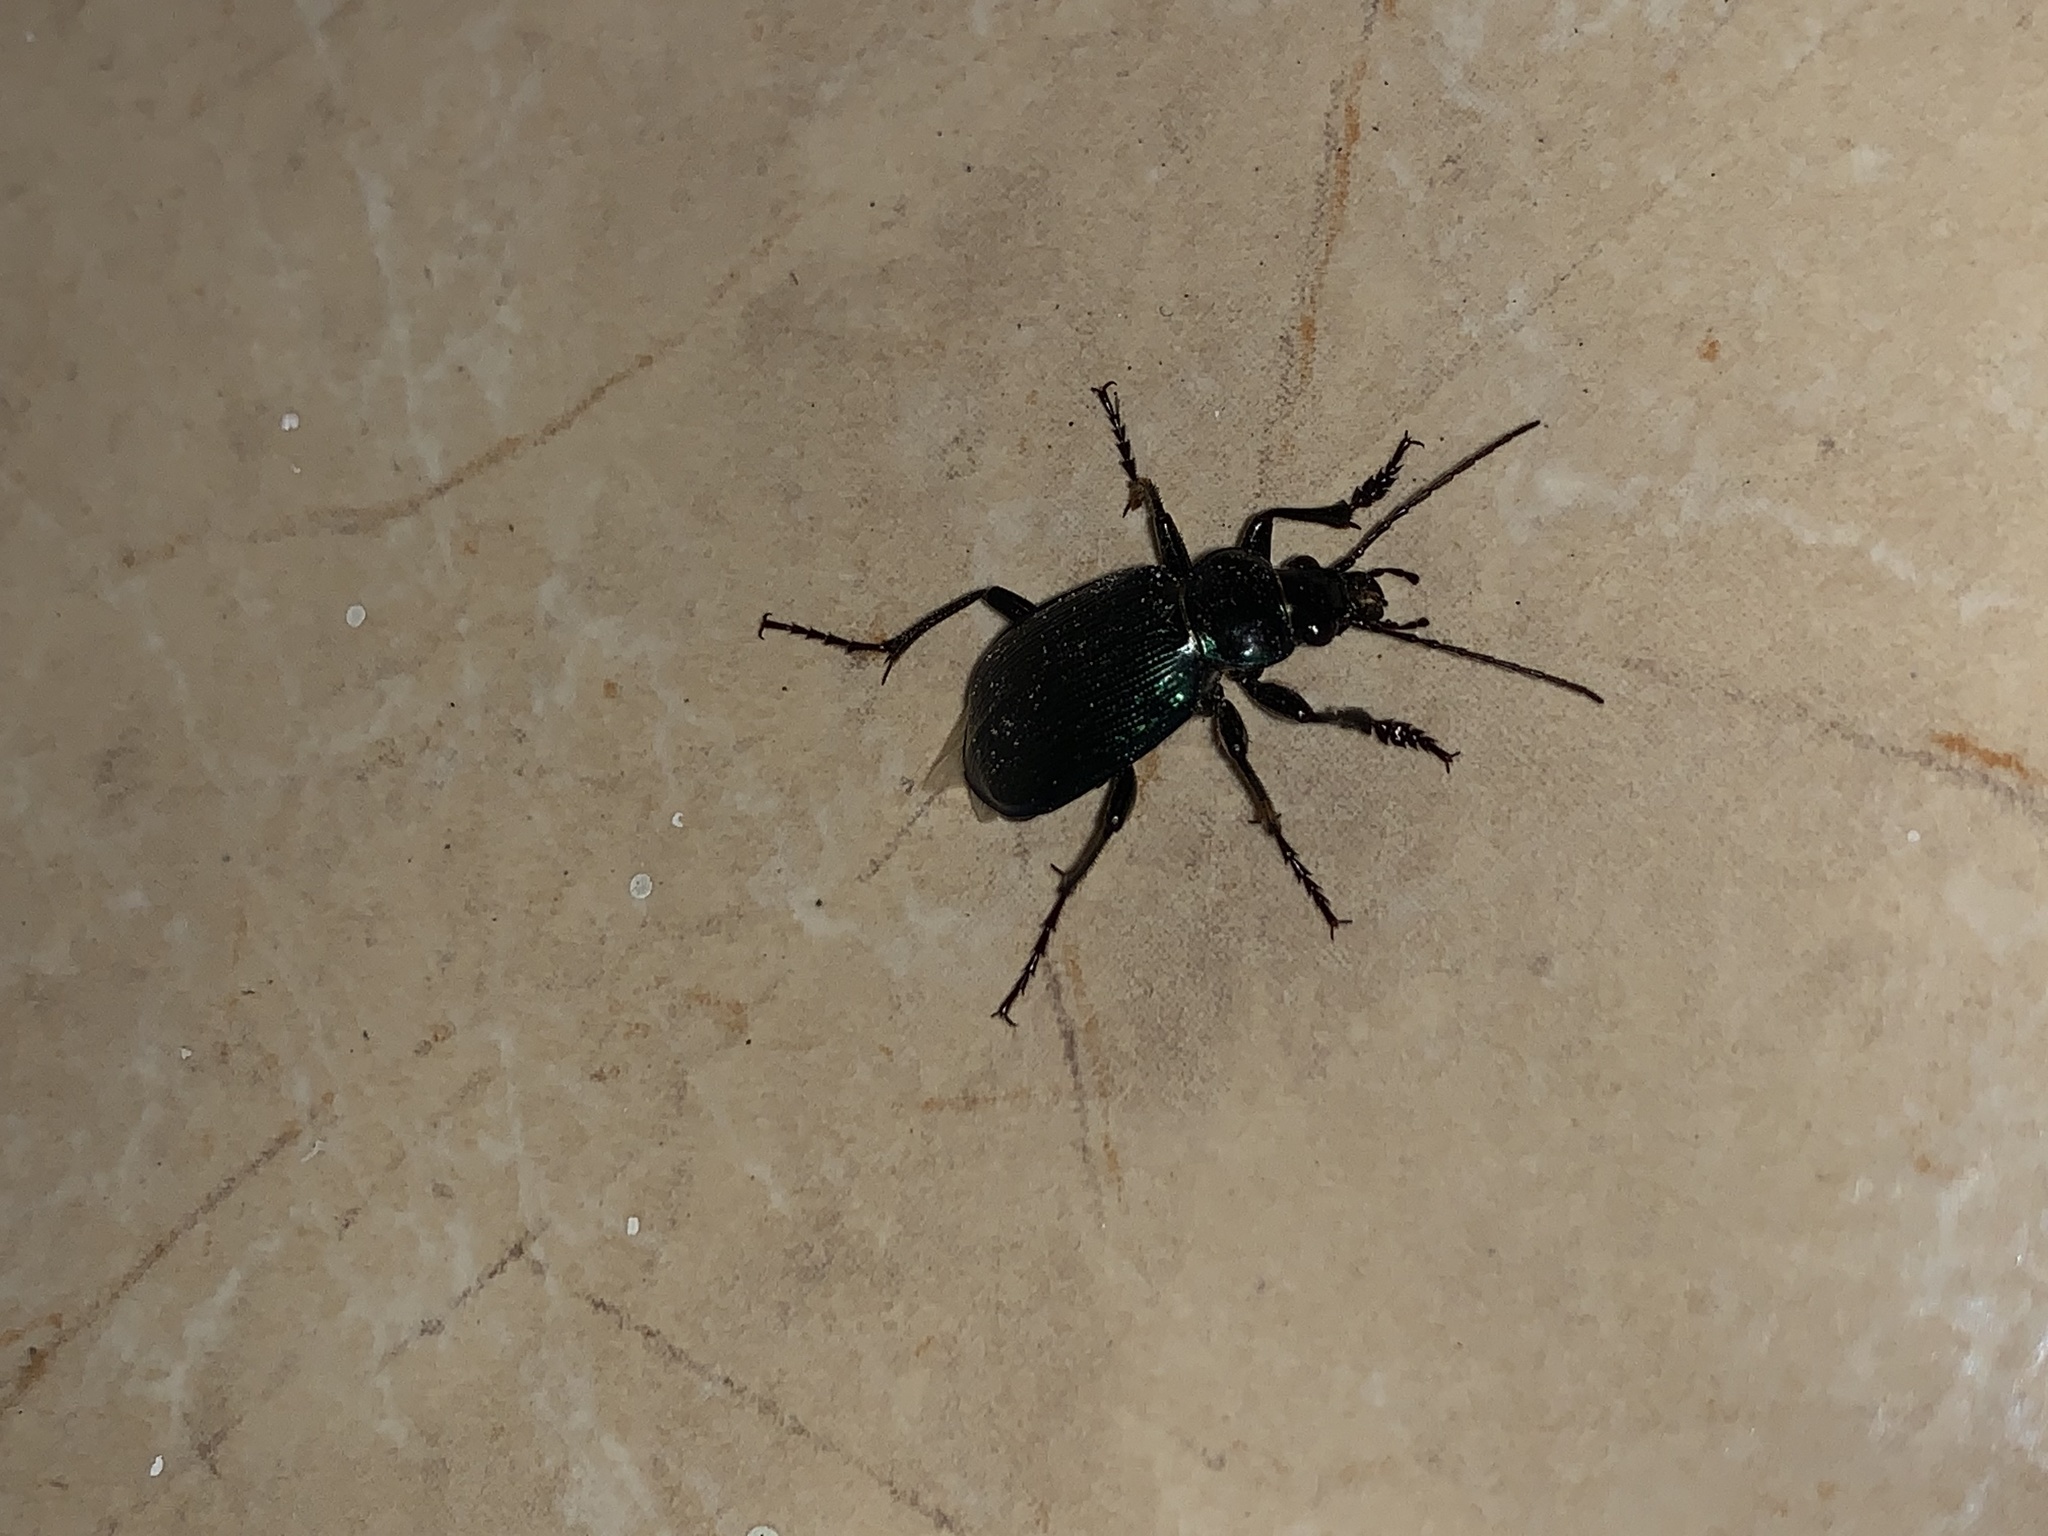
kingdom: Animalia
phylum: Arthropoda
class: Insecta
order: Coleoptera
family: Carabidae
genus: Calosoma
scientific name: Calosoma granatense
